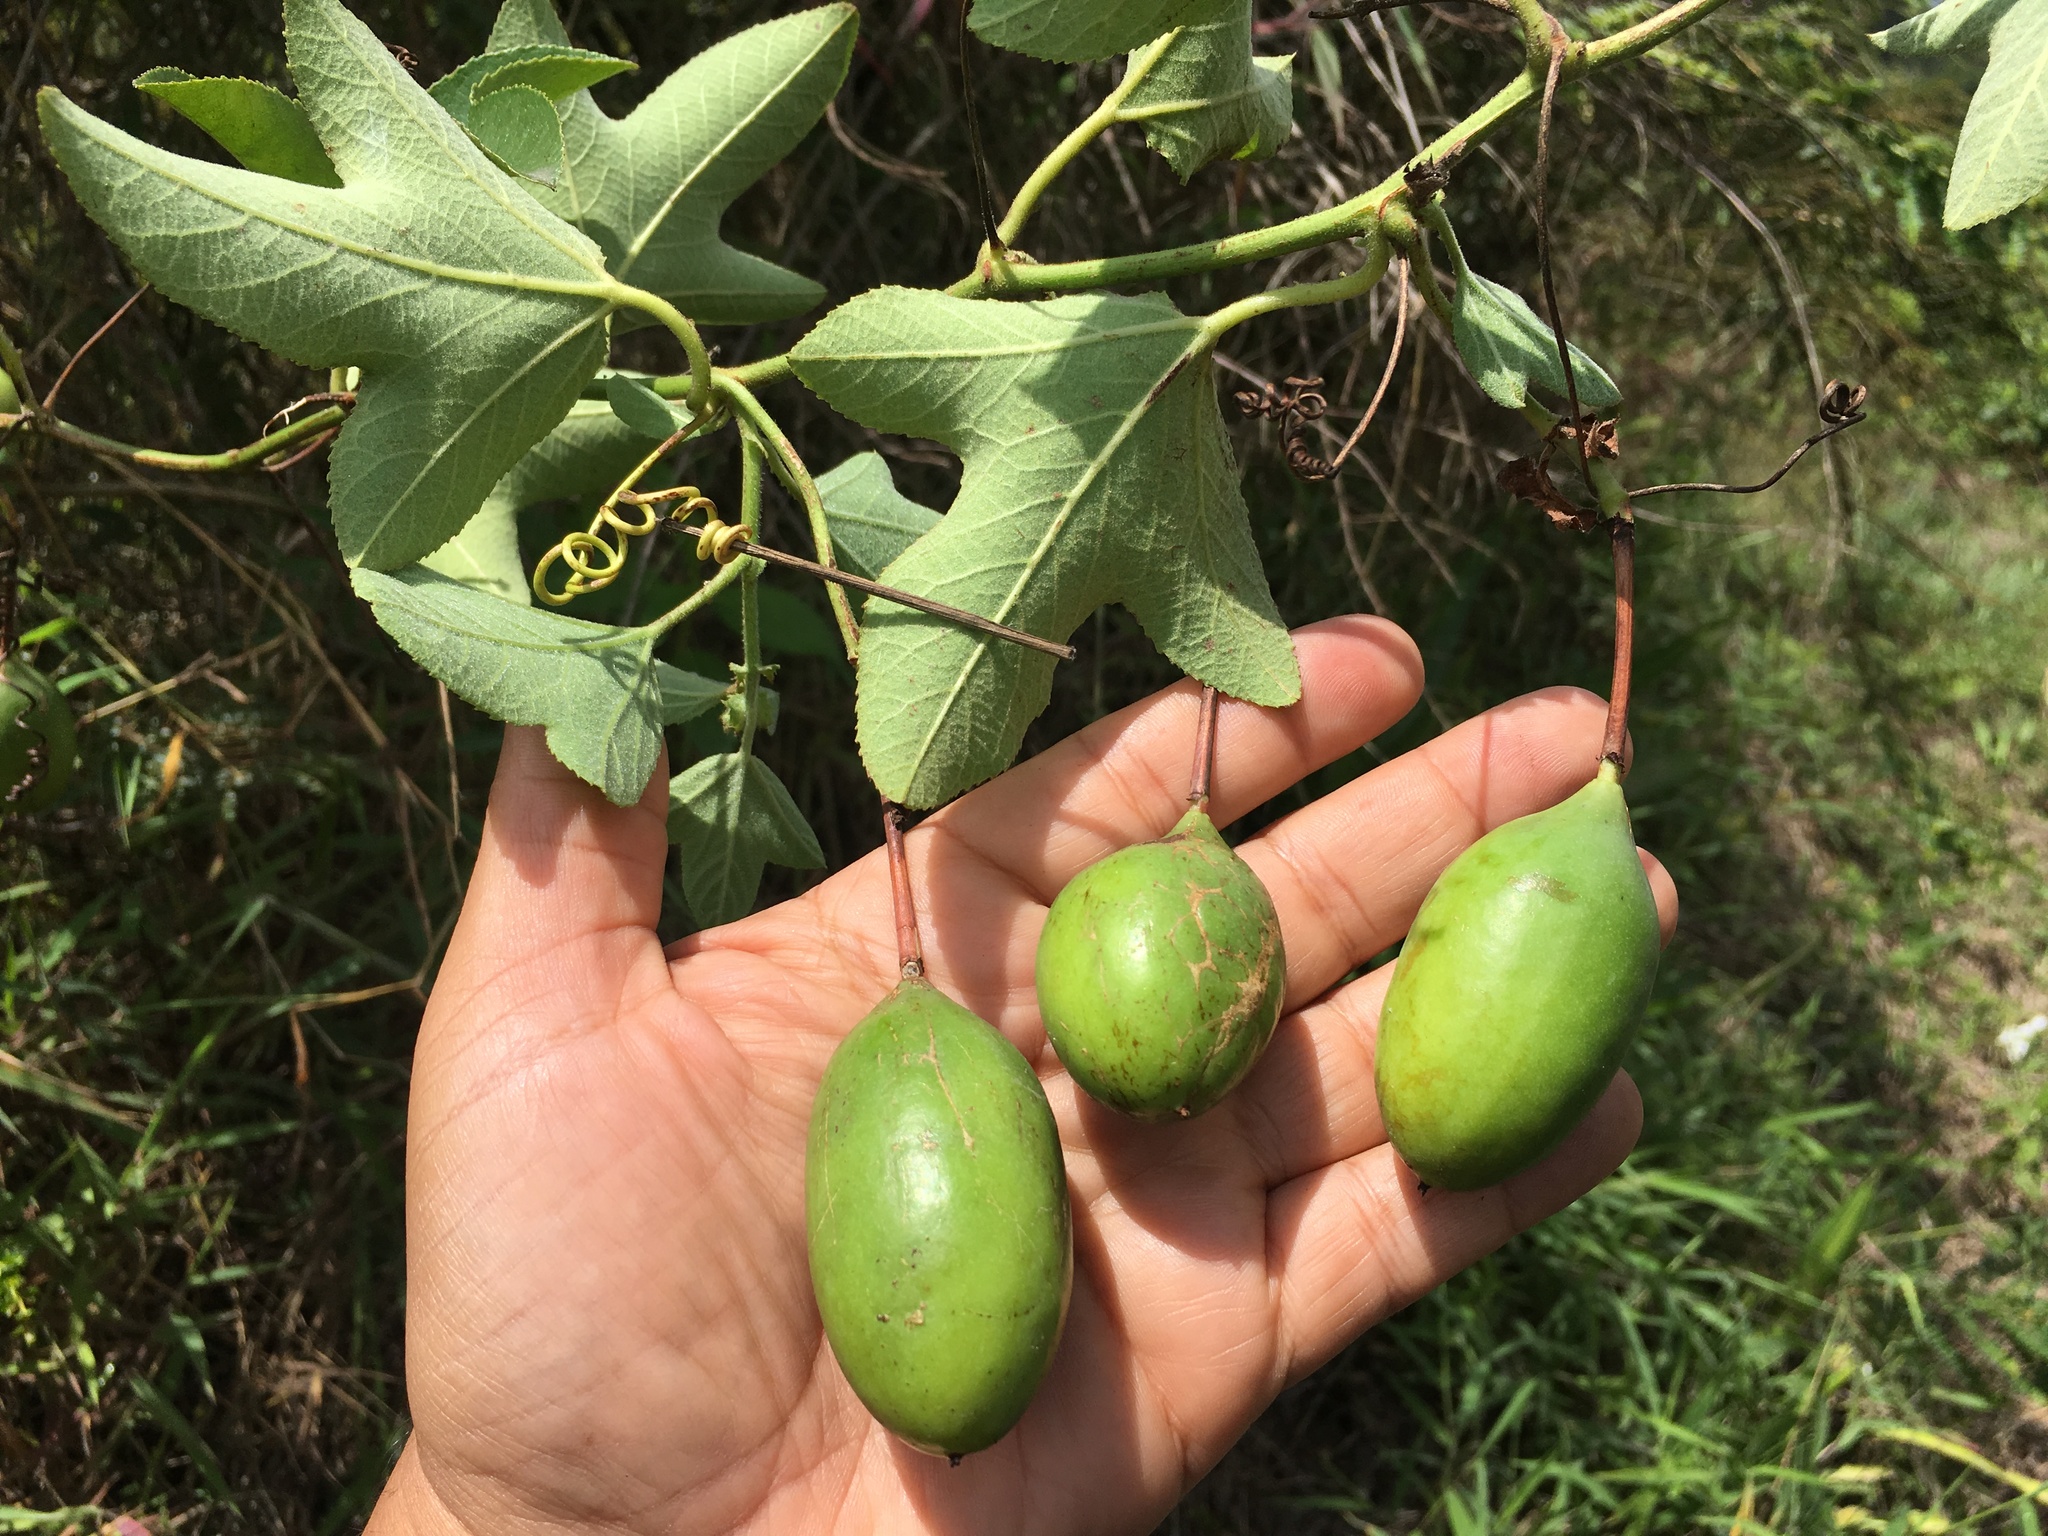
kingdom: Plantae
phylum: Tracheophyta
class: Magnoliopsida
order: Malpighiales
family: Passifloraceae
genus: Passiflora
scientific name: Passiflora manicata
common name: Red passionflower
